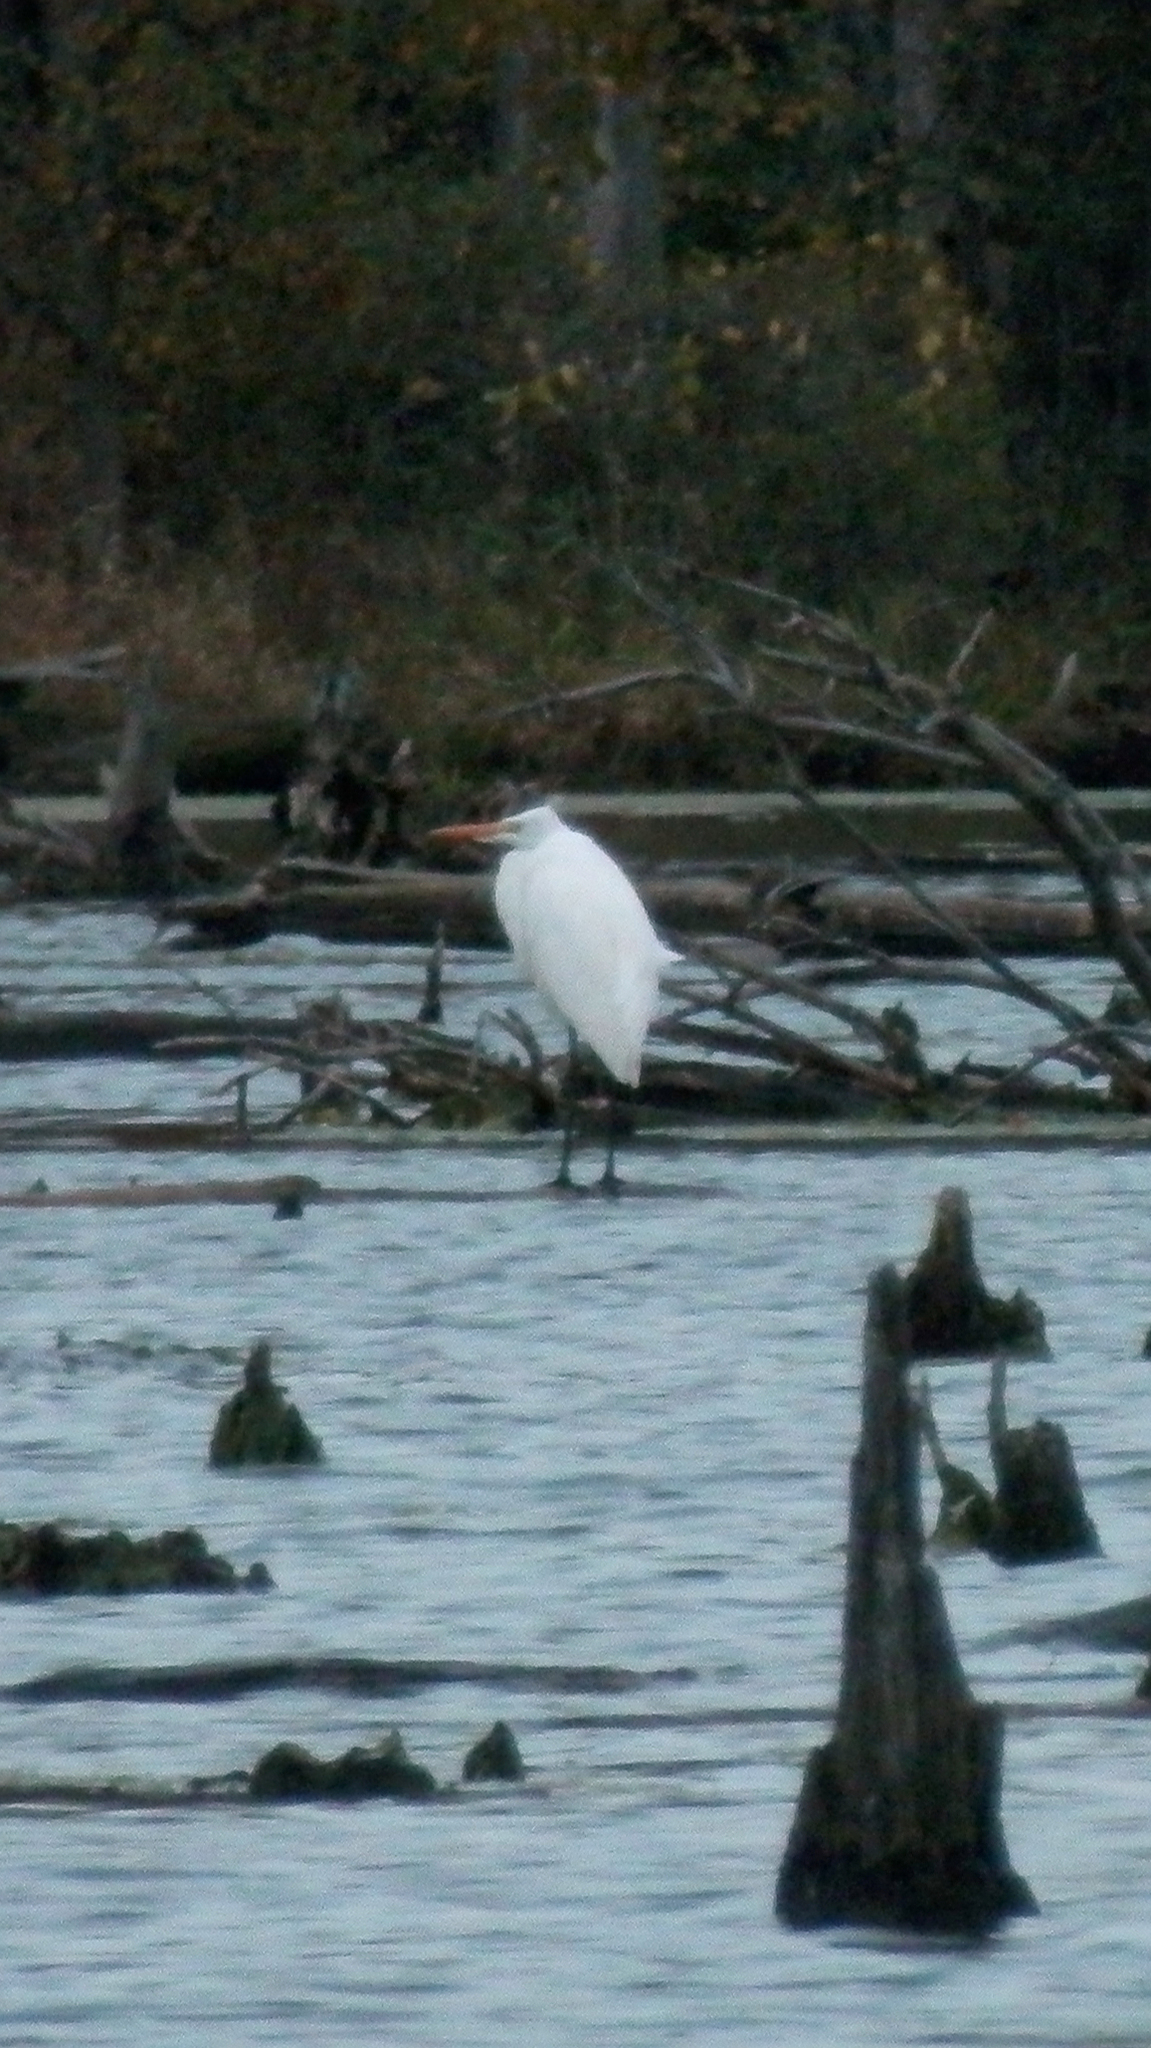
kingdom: Animalia
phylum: Chordata
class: Aves
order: Pelecaniformes
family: Ardeidae
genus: Ardea
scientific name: Ardea alba
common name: Great egret
